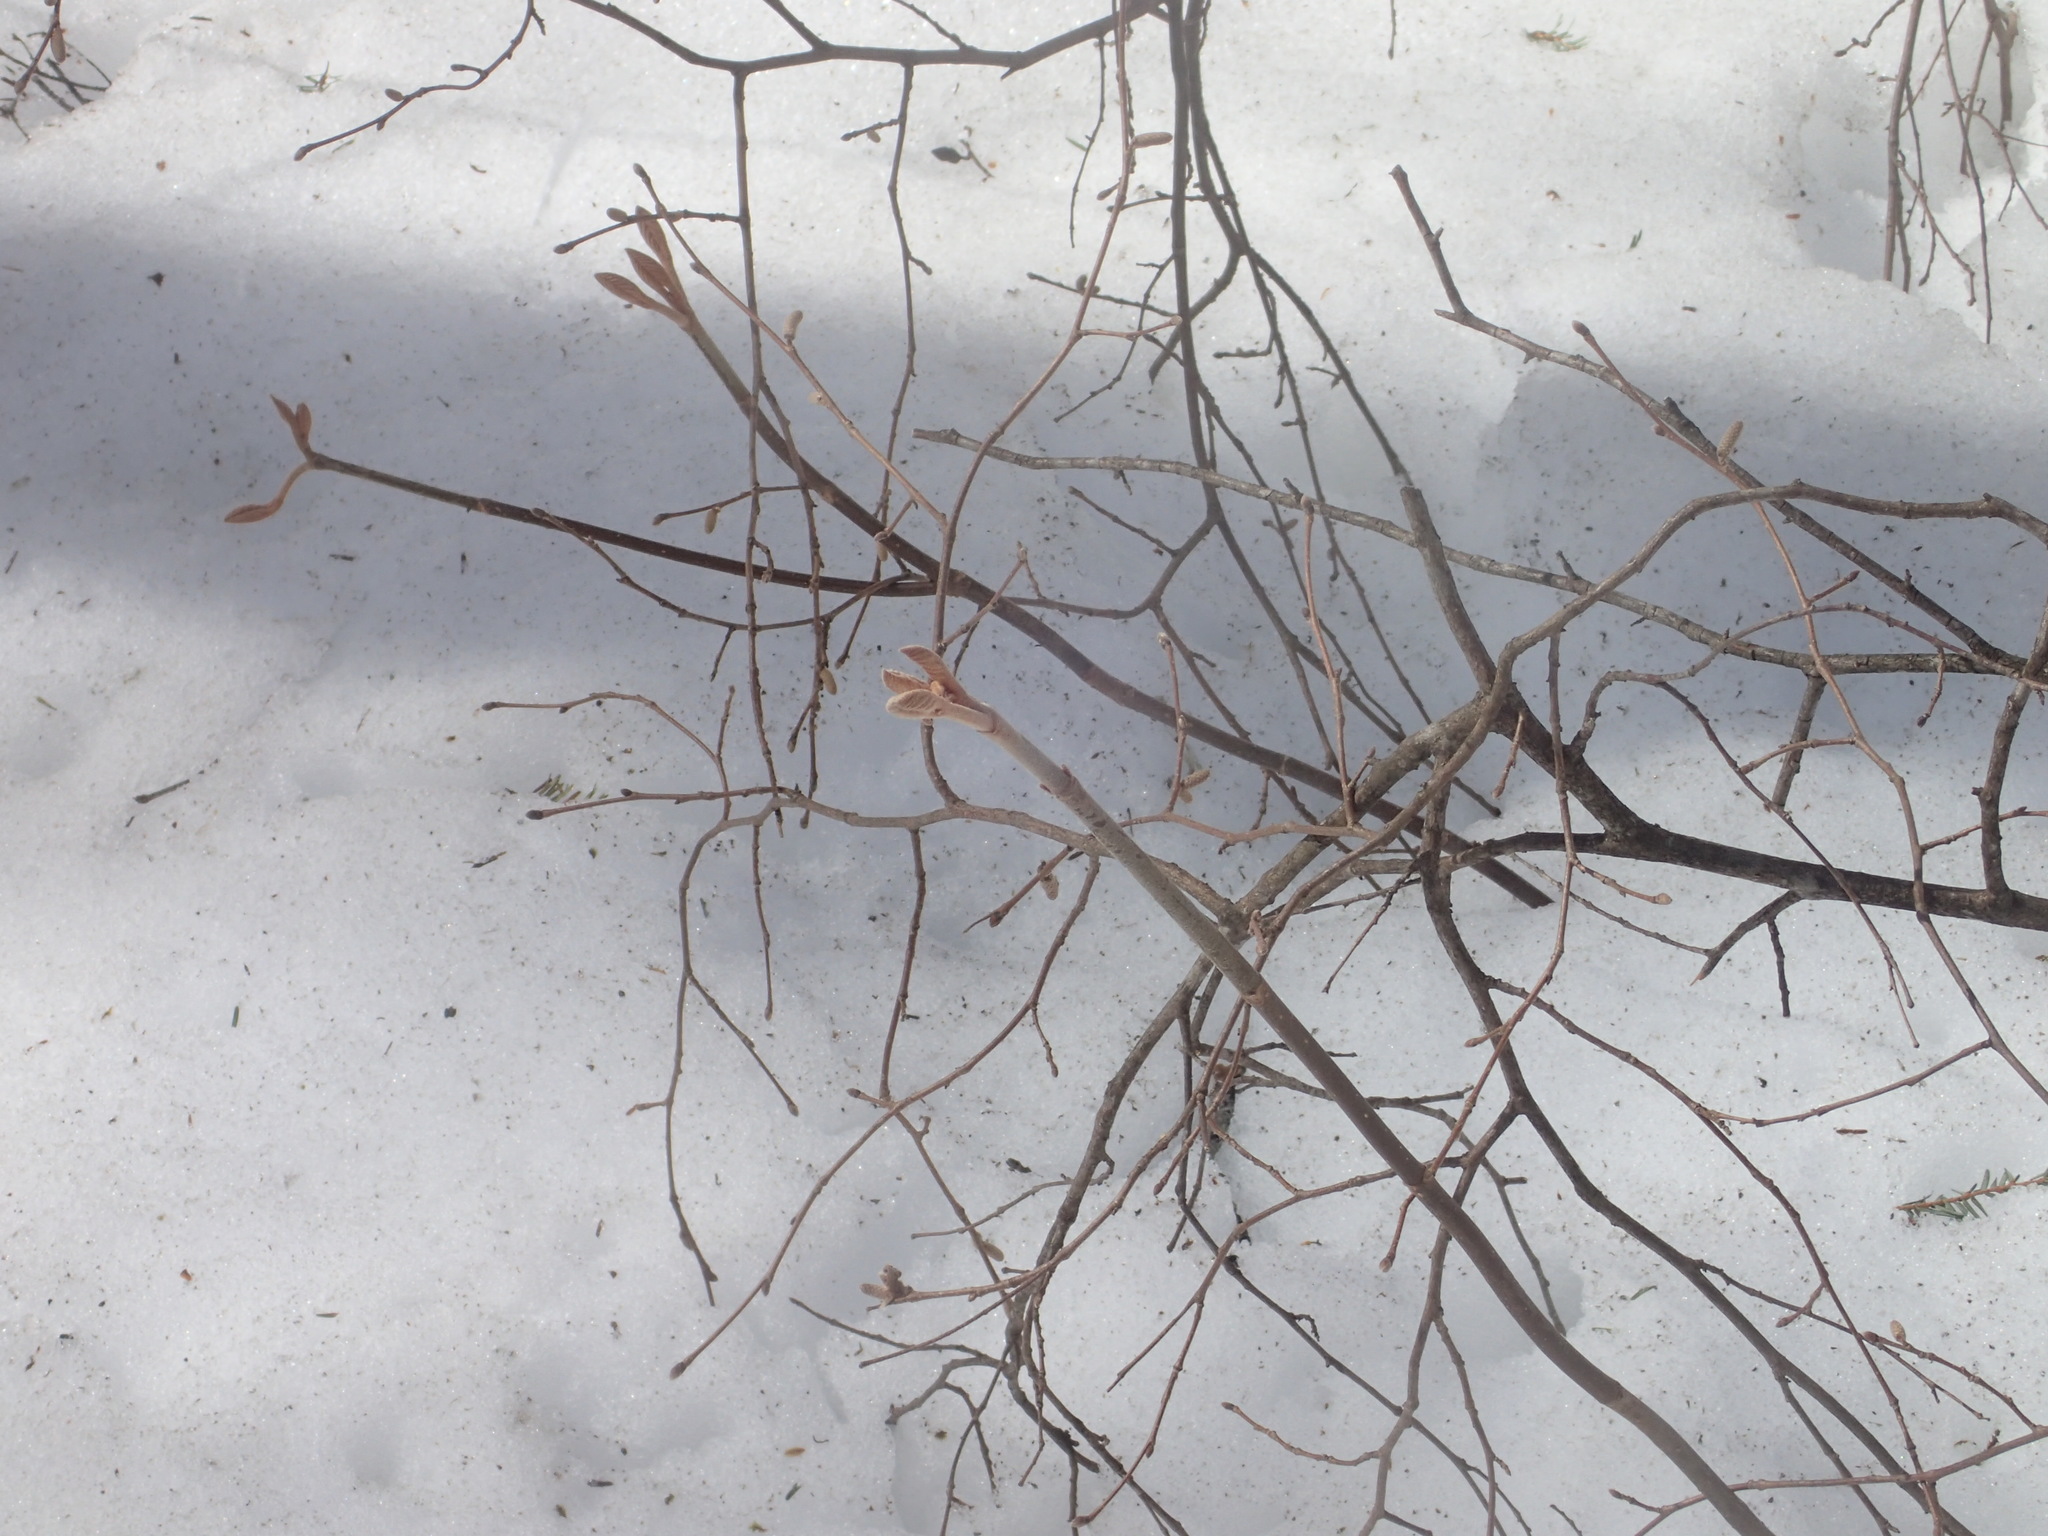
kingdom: Plantae
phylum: Tracheophyta
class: Magnoliopsida
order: Dipsacales
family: Viburnaceae
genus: Viburnum
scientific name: Viburnum lantanoides
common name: Hobblebush
